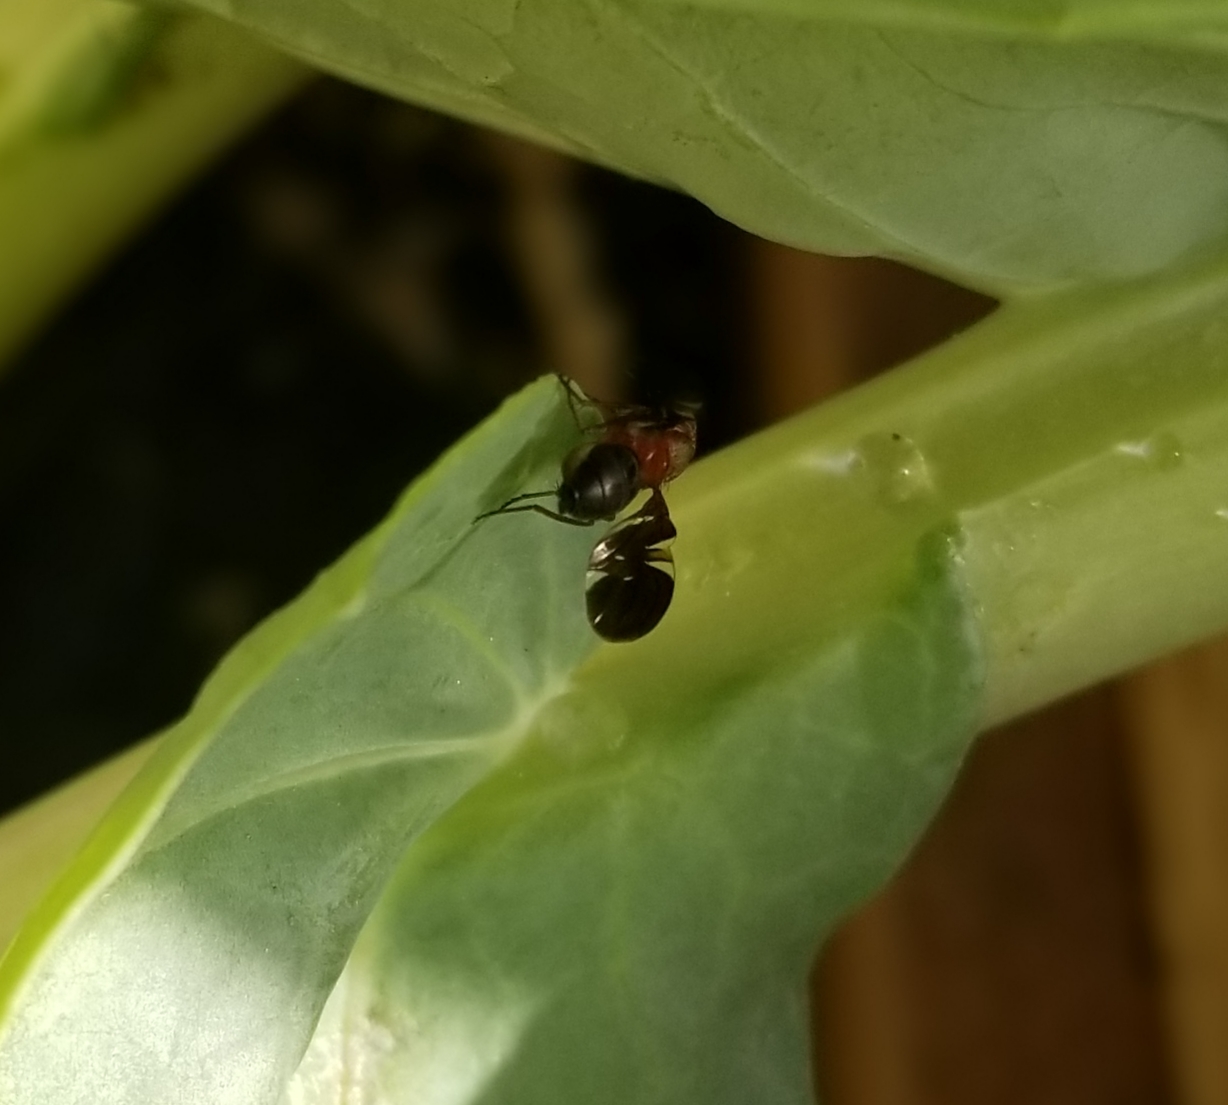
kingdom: Animalia
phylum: Arthropoda
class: Insecta
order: Diptera
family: Ulidiidae
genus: Delphinia
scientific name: Delphinia picta
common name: Common picture-winged fly
